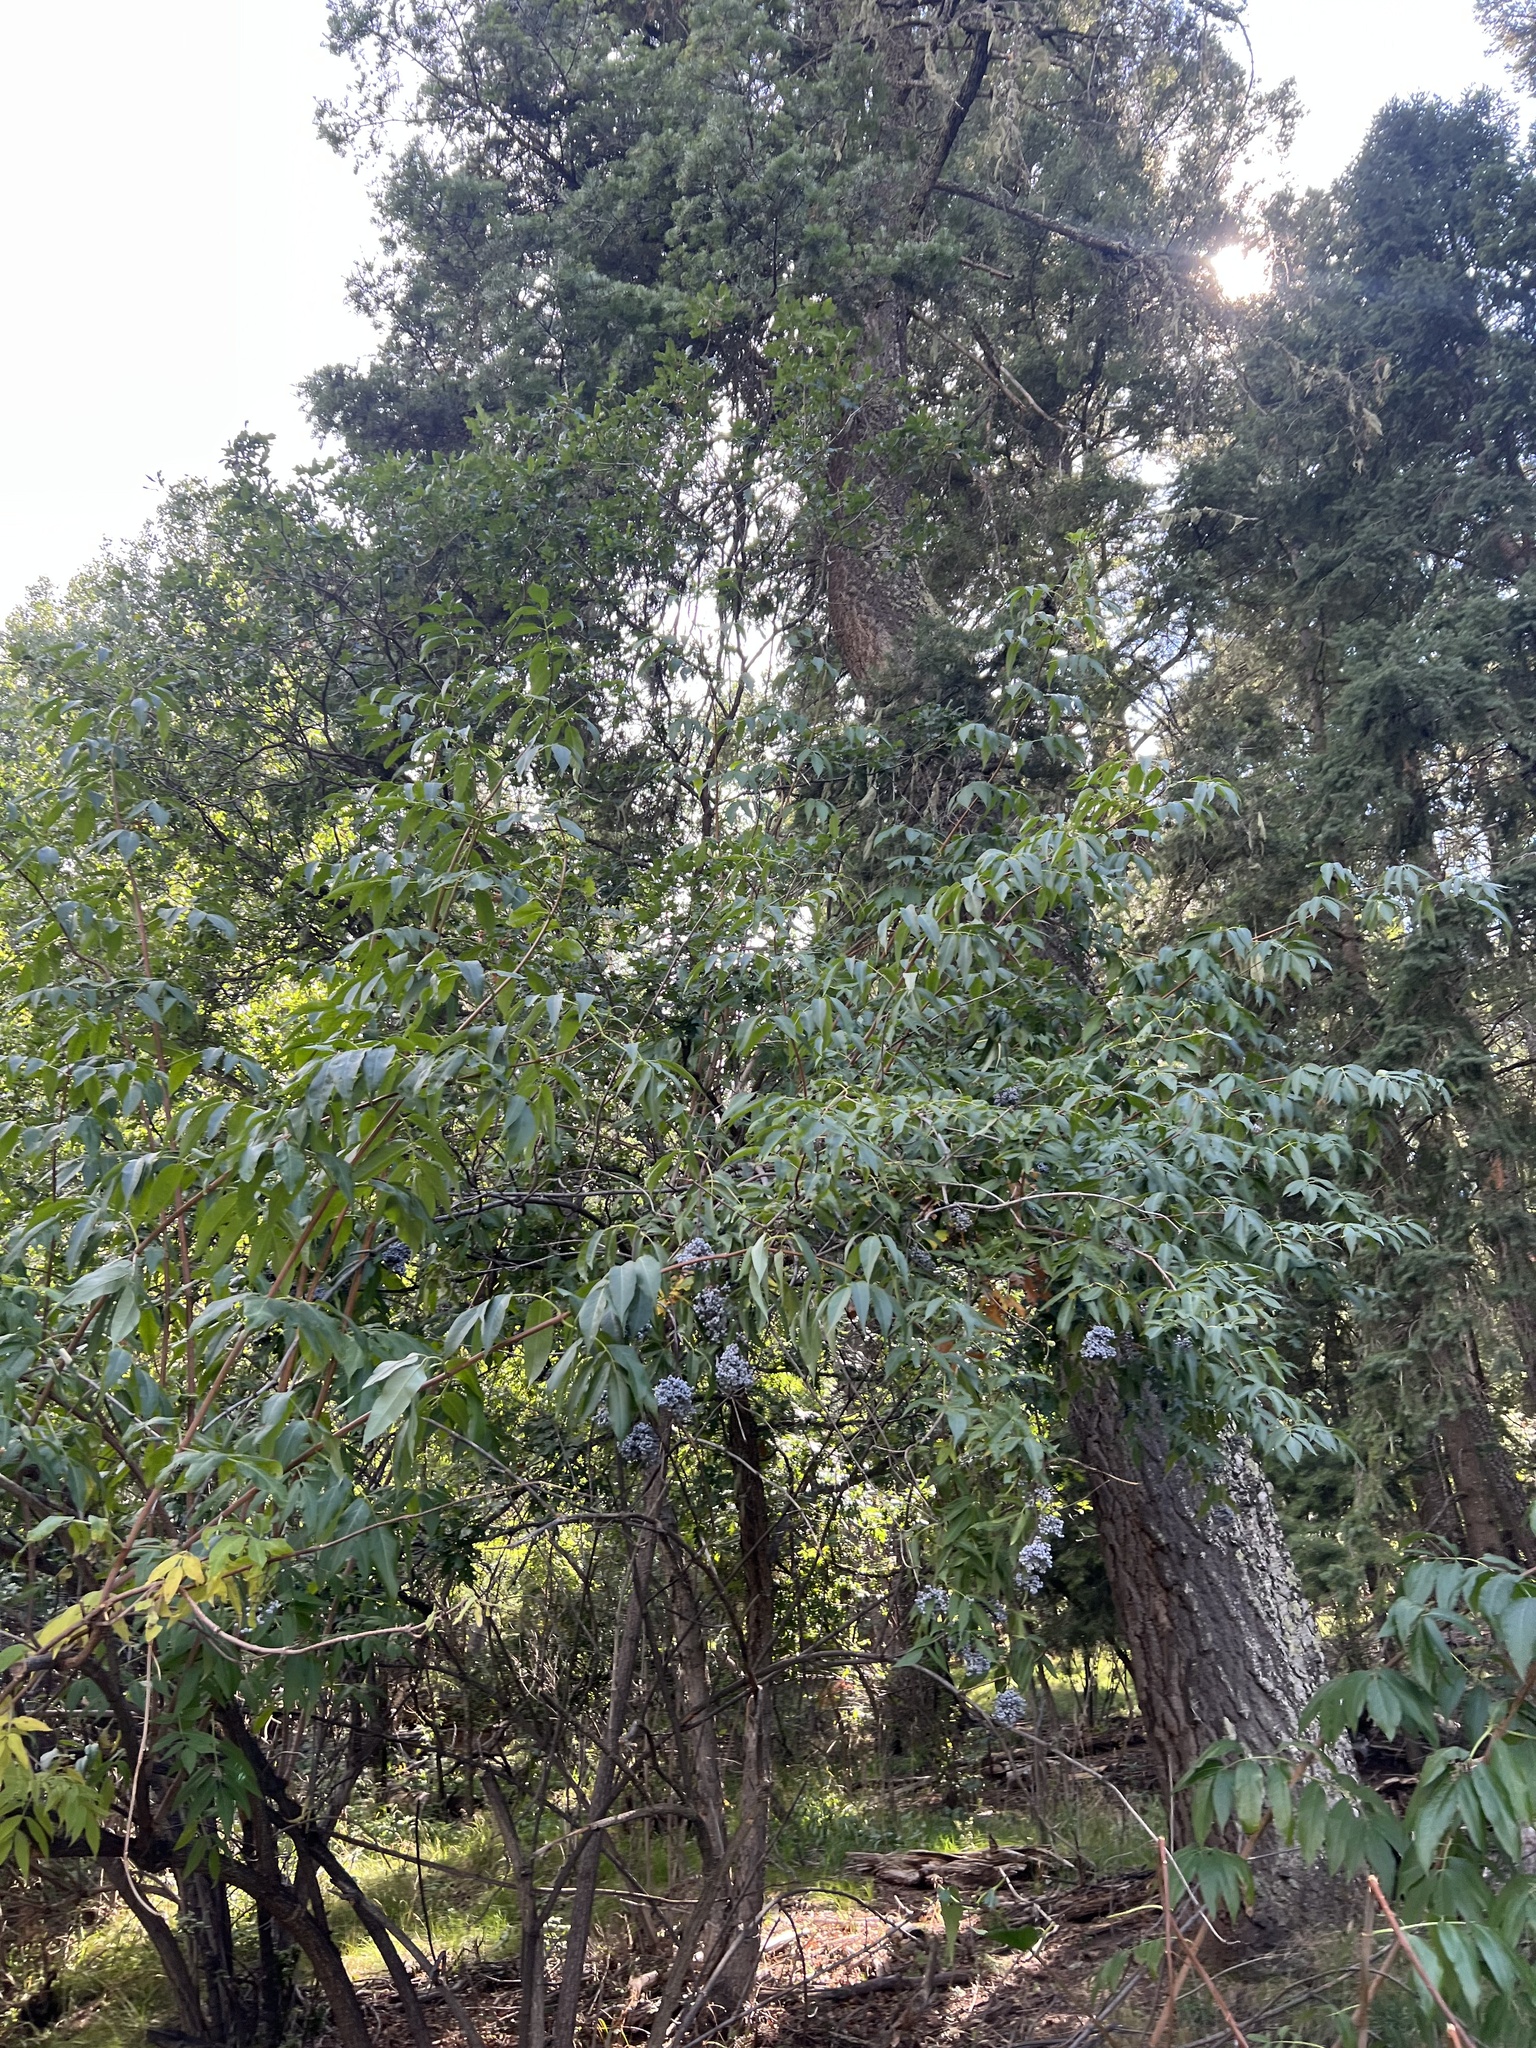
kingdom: Plantae
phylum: Tracheophyta
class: Magnoliopsida
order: Dipsacales
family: Viburnaceae
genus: Sambucus
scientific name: Sambucus cerulea
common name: Blue elder
